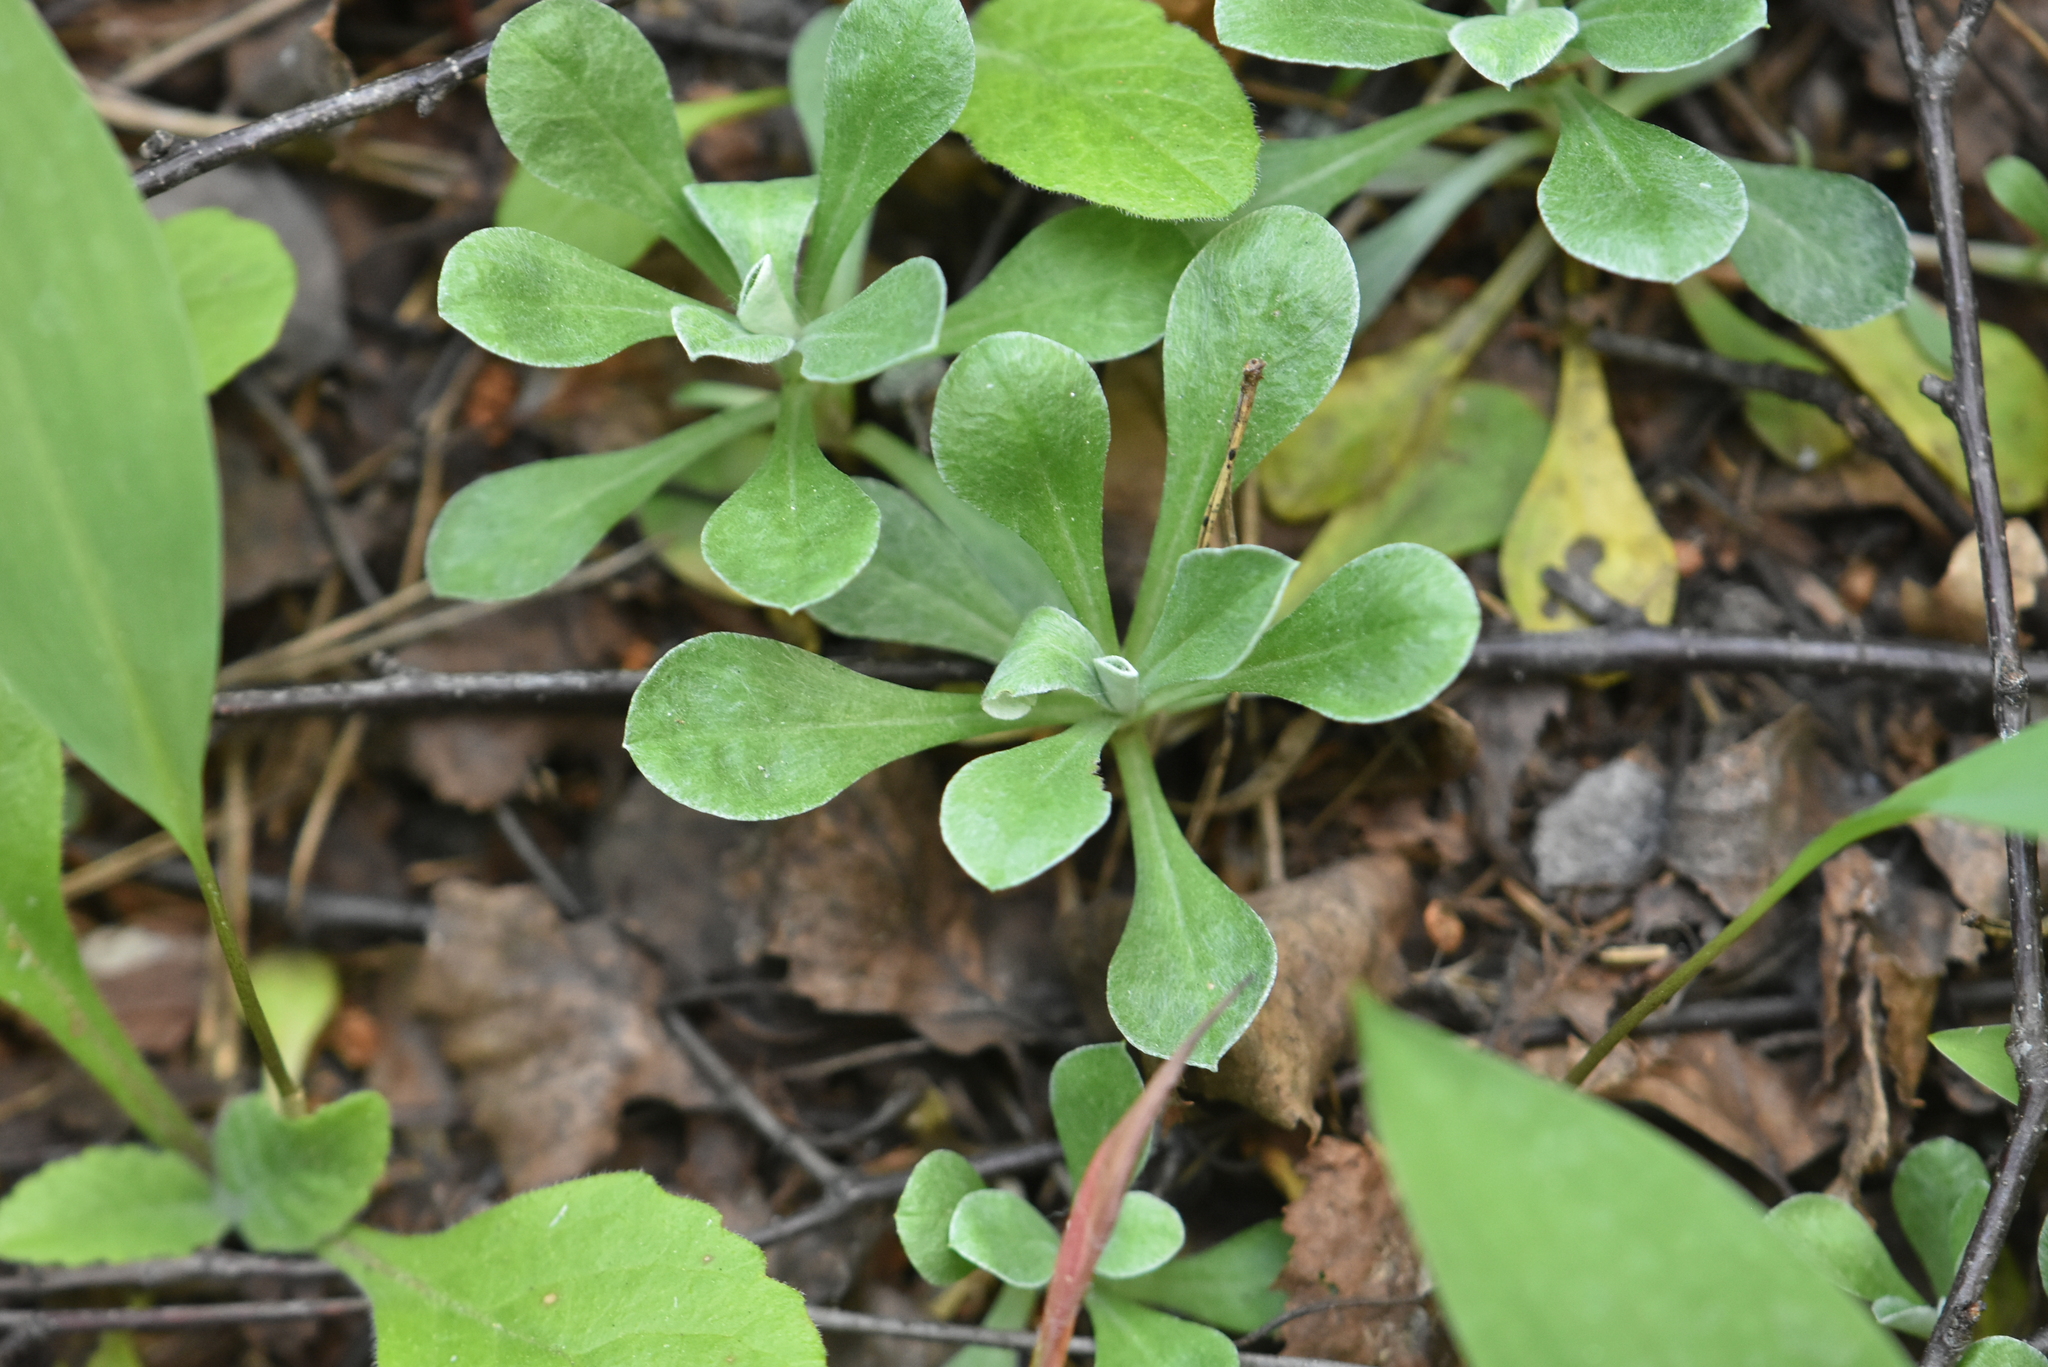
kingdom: Plantae
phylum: Tracheophyta
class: Magnoliopsida
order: Asterales
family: Asteraceae
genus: Antennaria
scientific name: Antennaria dioica
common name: Mountain everlasting
